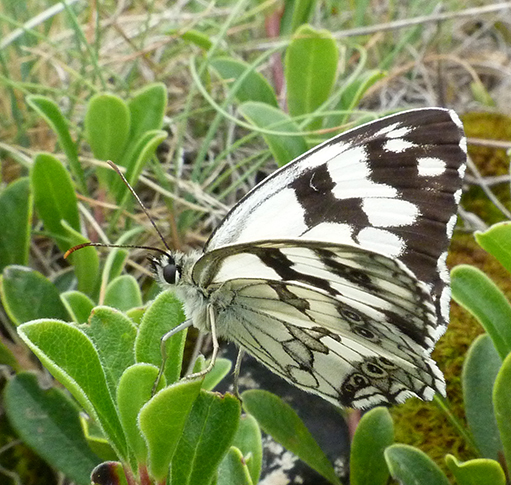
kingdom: Animalia
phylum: Arthropoda
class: Insecta
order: Lepidoptera
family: Nymphalidae
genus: Melanargia
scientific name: Melanargia lachesis
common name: Iberian marbled white
